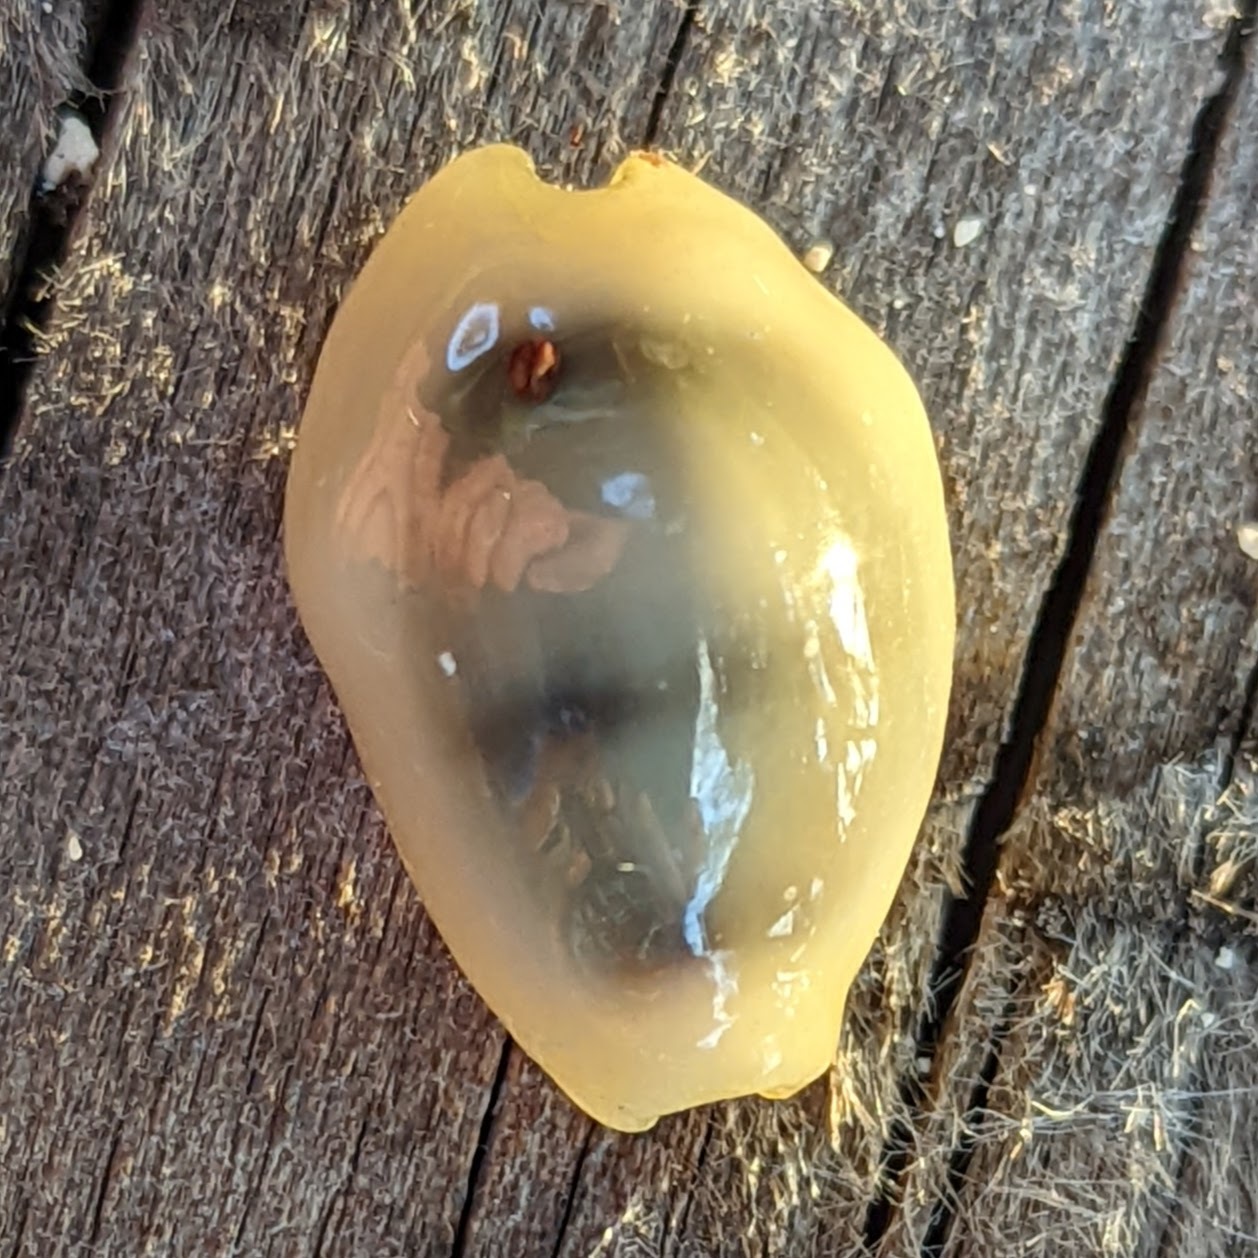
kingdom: Animalia
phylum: Mollusca
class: Gastropoda
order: Littorinimorpha
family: Cypraeidae
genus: Monetaria
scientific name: Monetaria moneta
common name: Money cowrie
